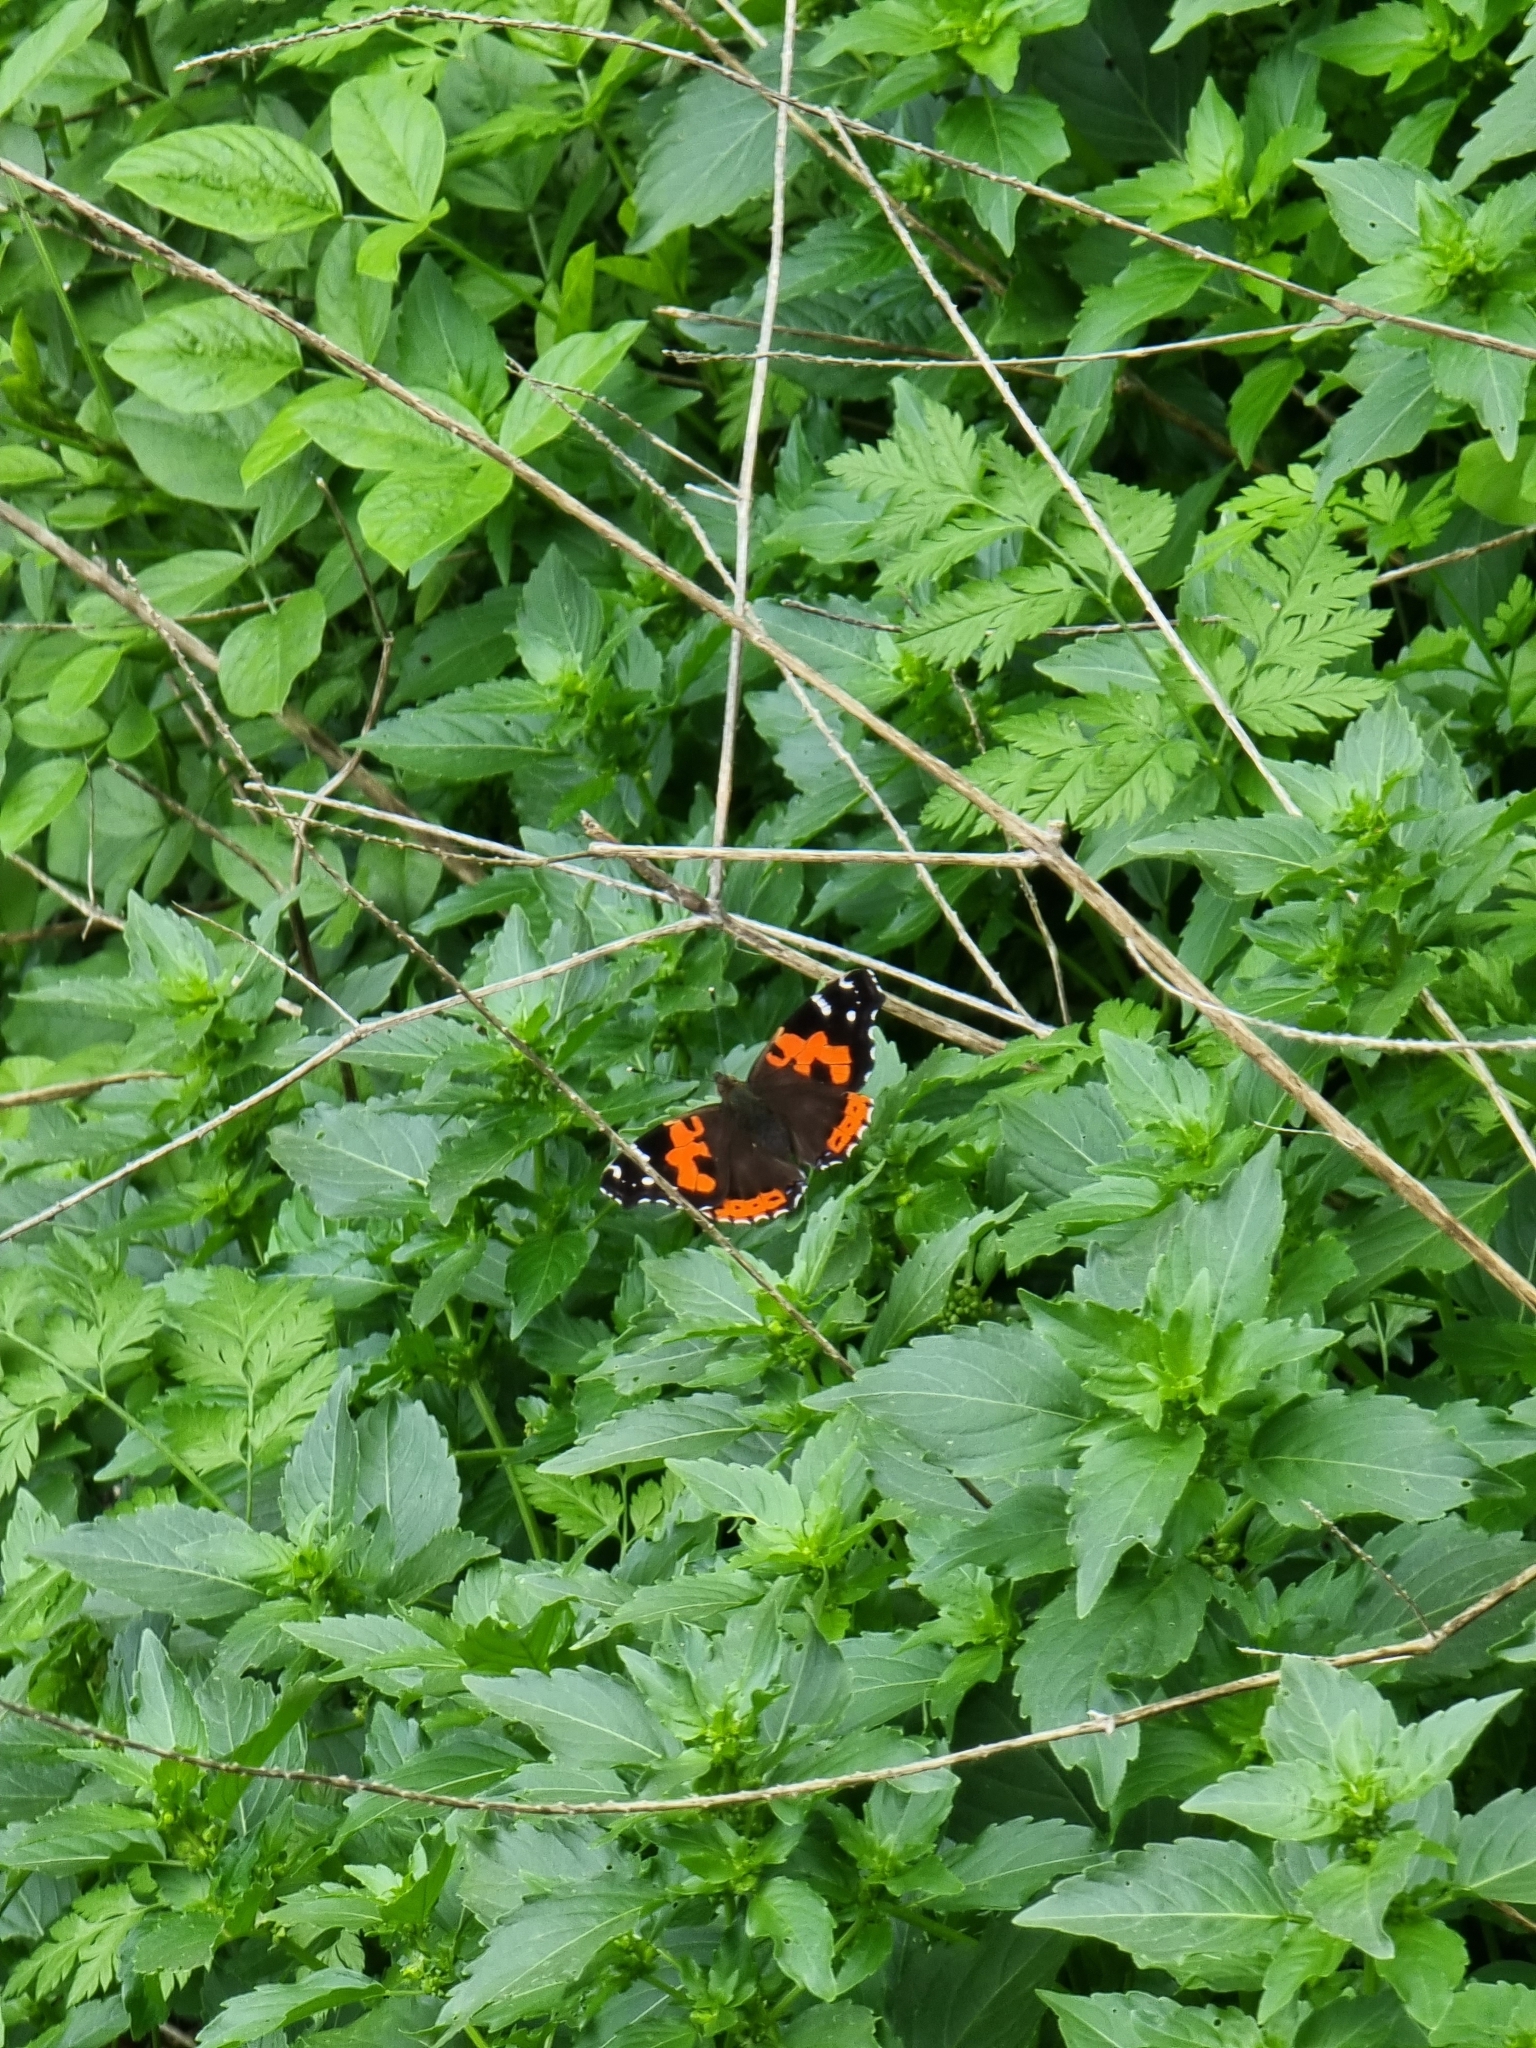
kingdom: Animalia
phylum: Arthropoda
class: Insecta
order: Lepidoptera
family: Nymphalidae
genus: Vanessa
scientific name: Vanessa vulcania
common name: Canary red admiral
